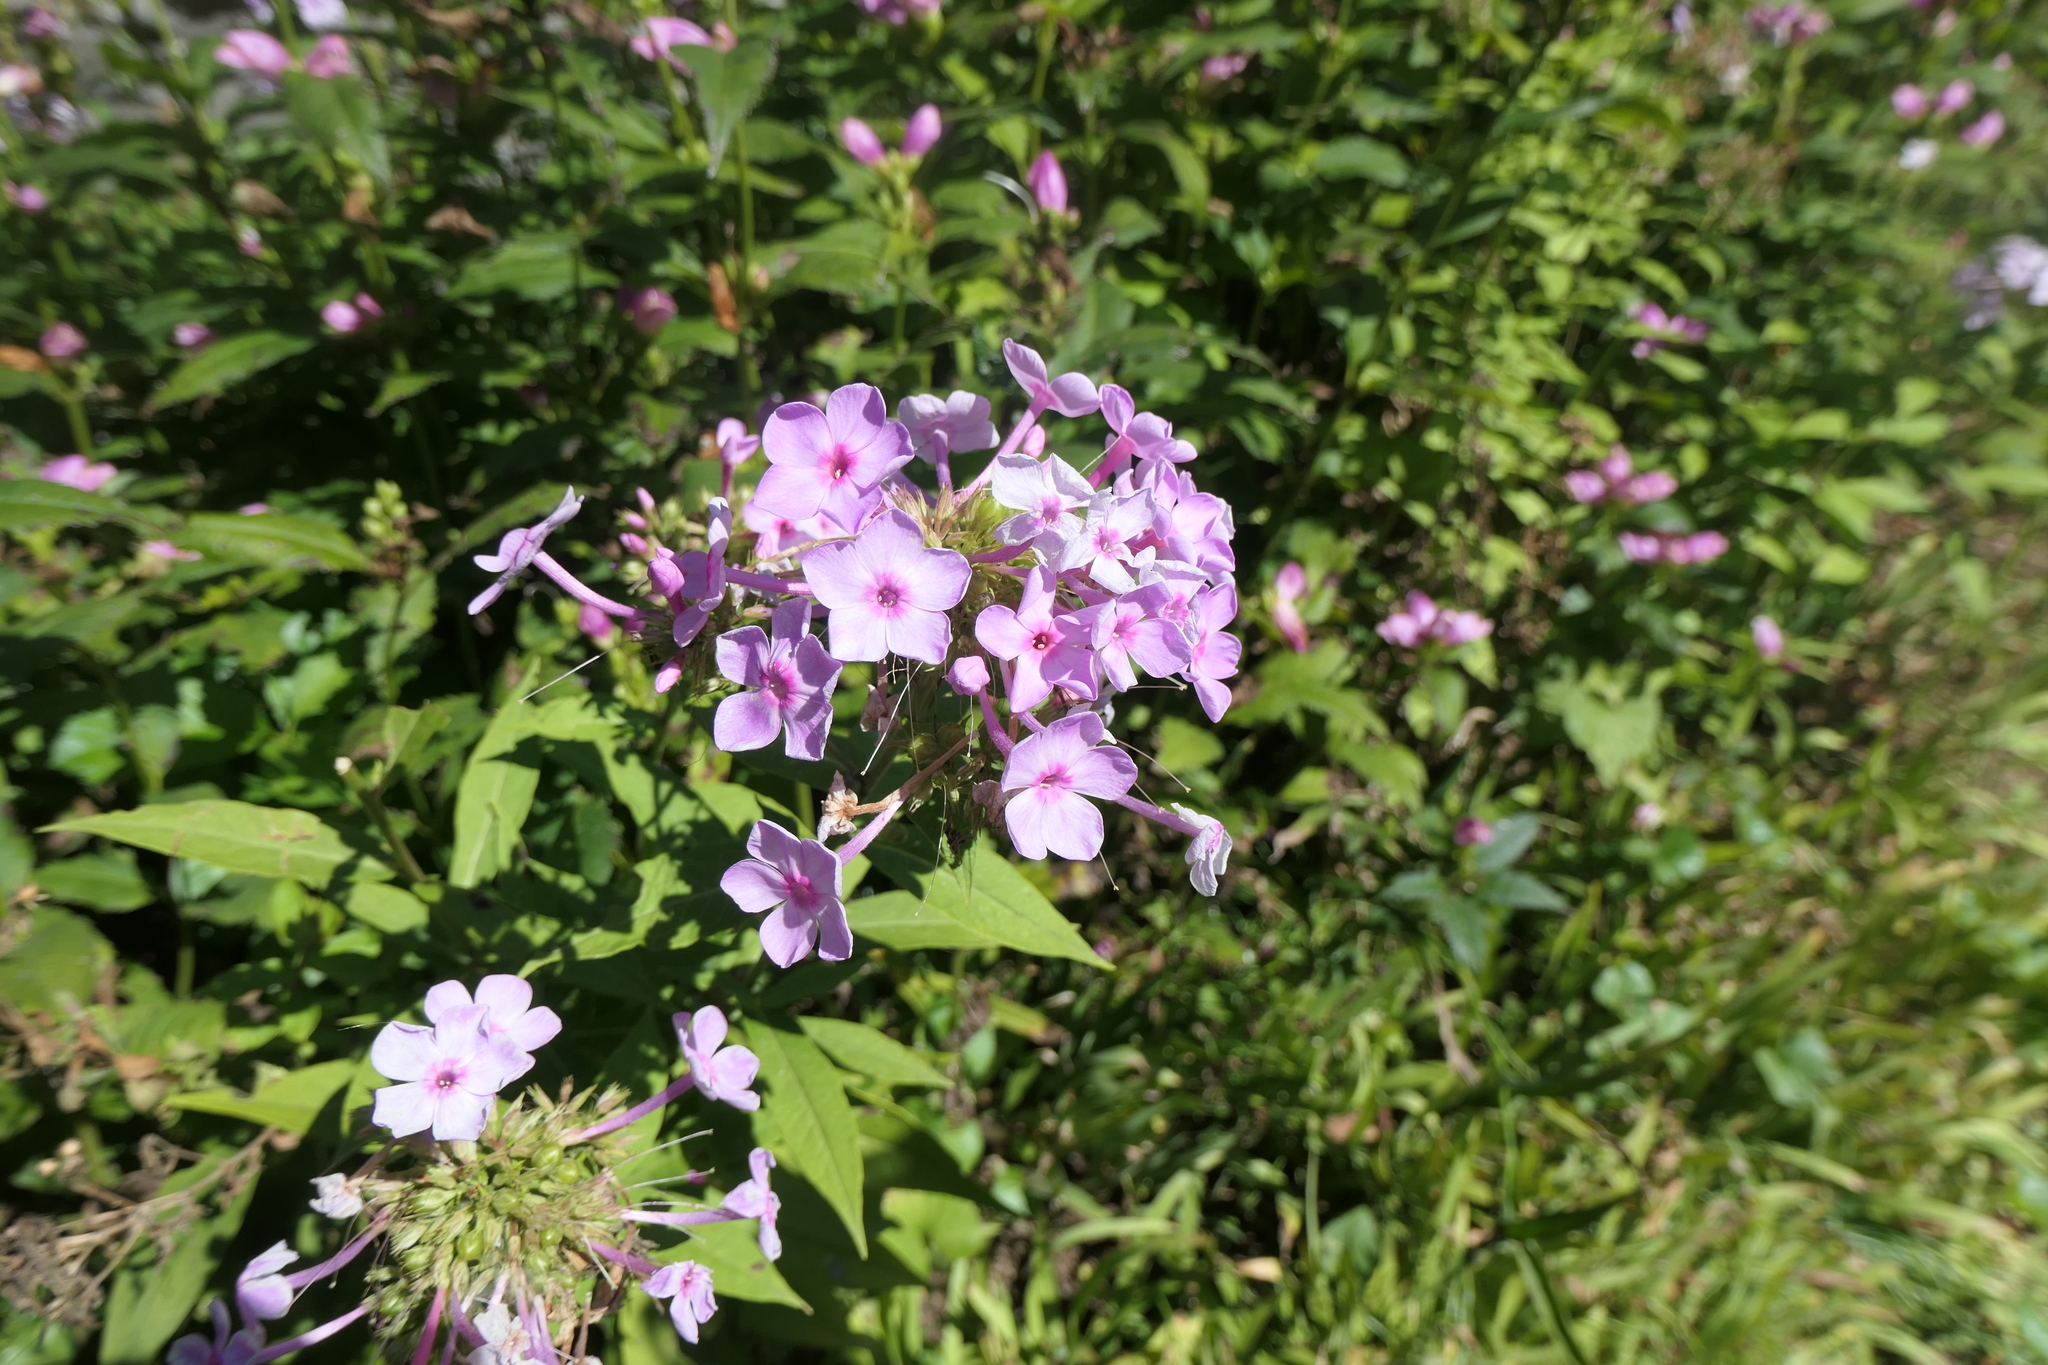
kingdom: Plantae
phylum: Tracheophyta
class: Magnoliopsida
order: Ericales
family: Polemoniaceae
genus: Phlox
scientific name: Phlox paniculata
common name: Fall phlox
